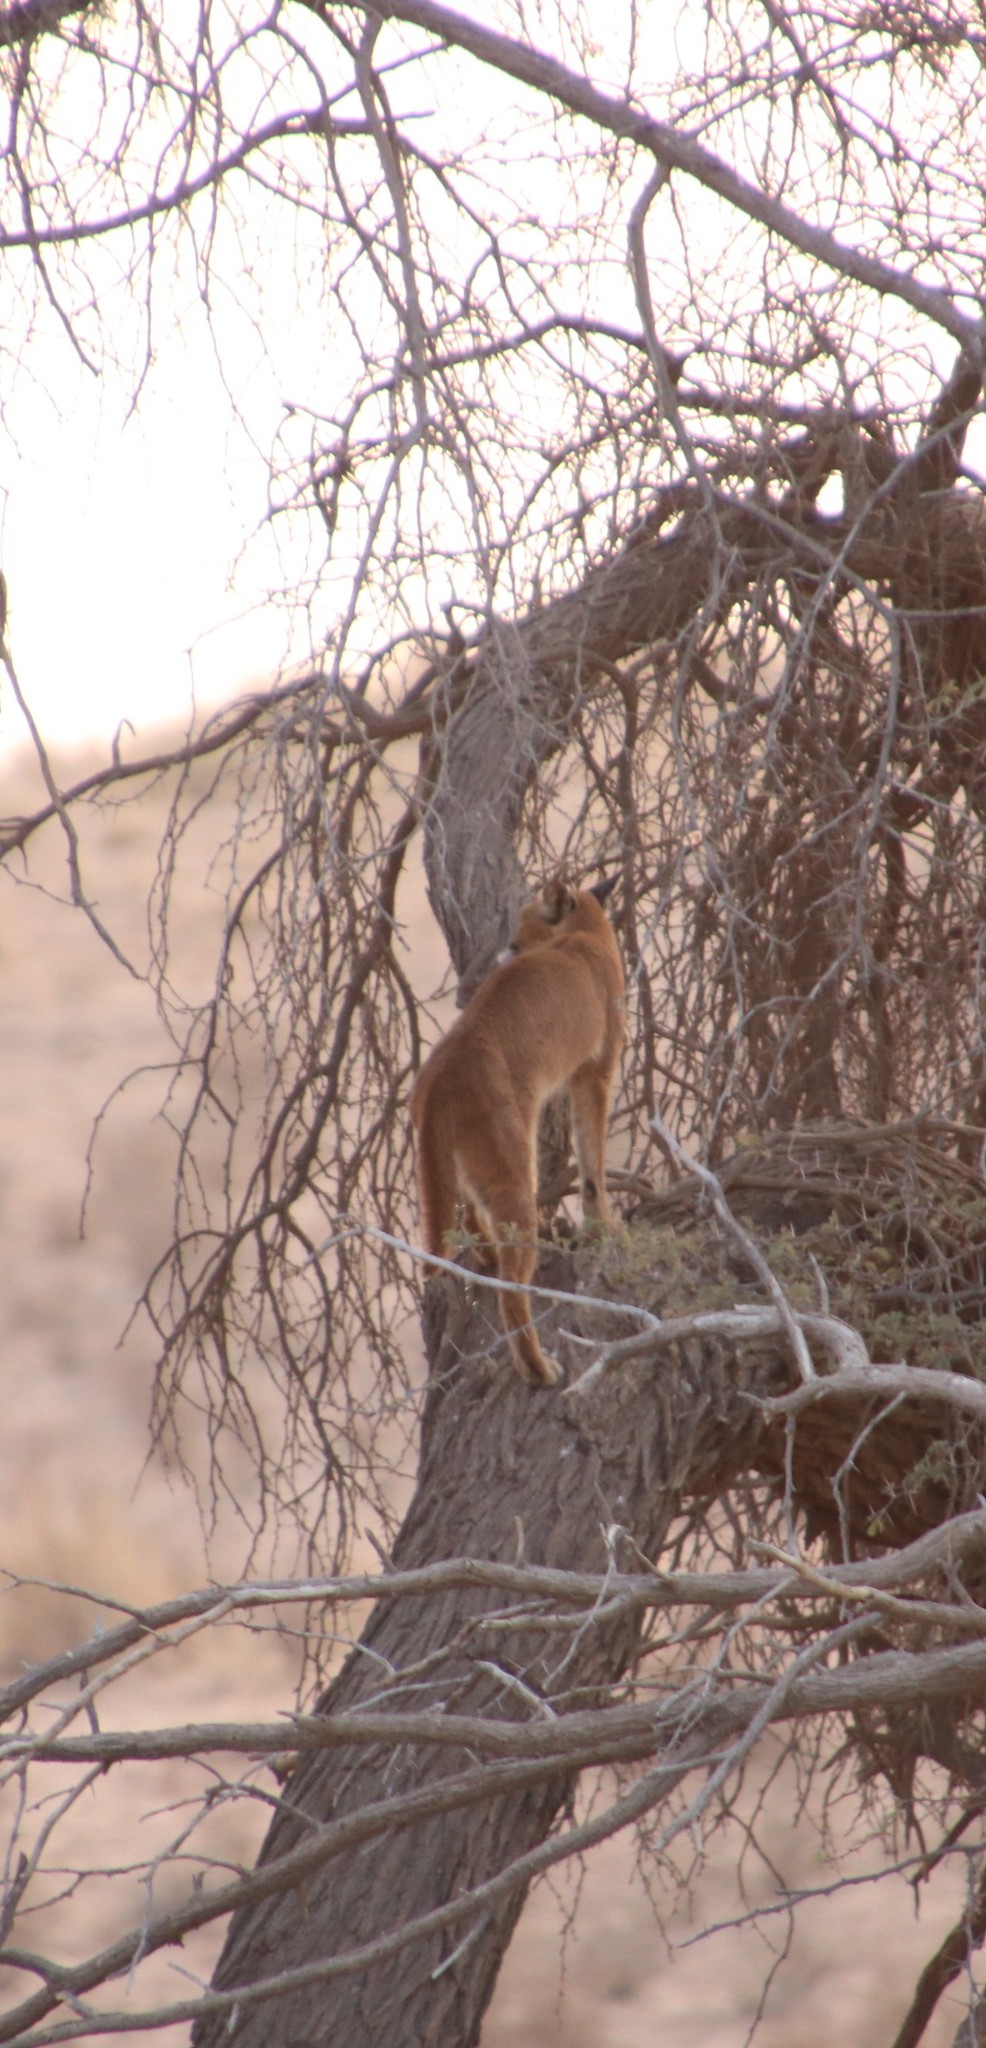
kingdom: Animalia
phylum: Chordata
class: Mammalia
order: Carnivora
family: Felidae
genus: Caracal
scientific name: Caracal caracal
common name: Caracal
